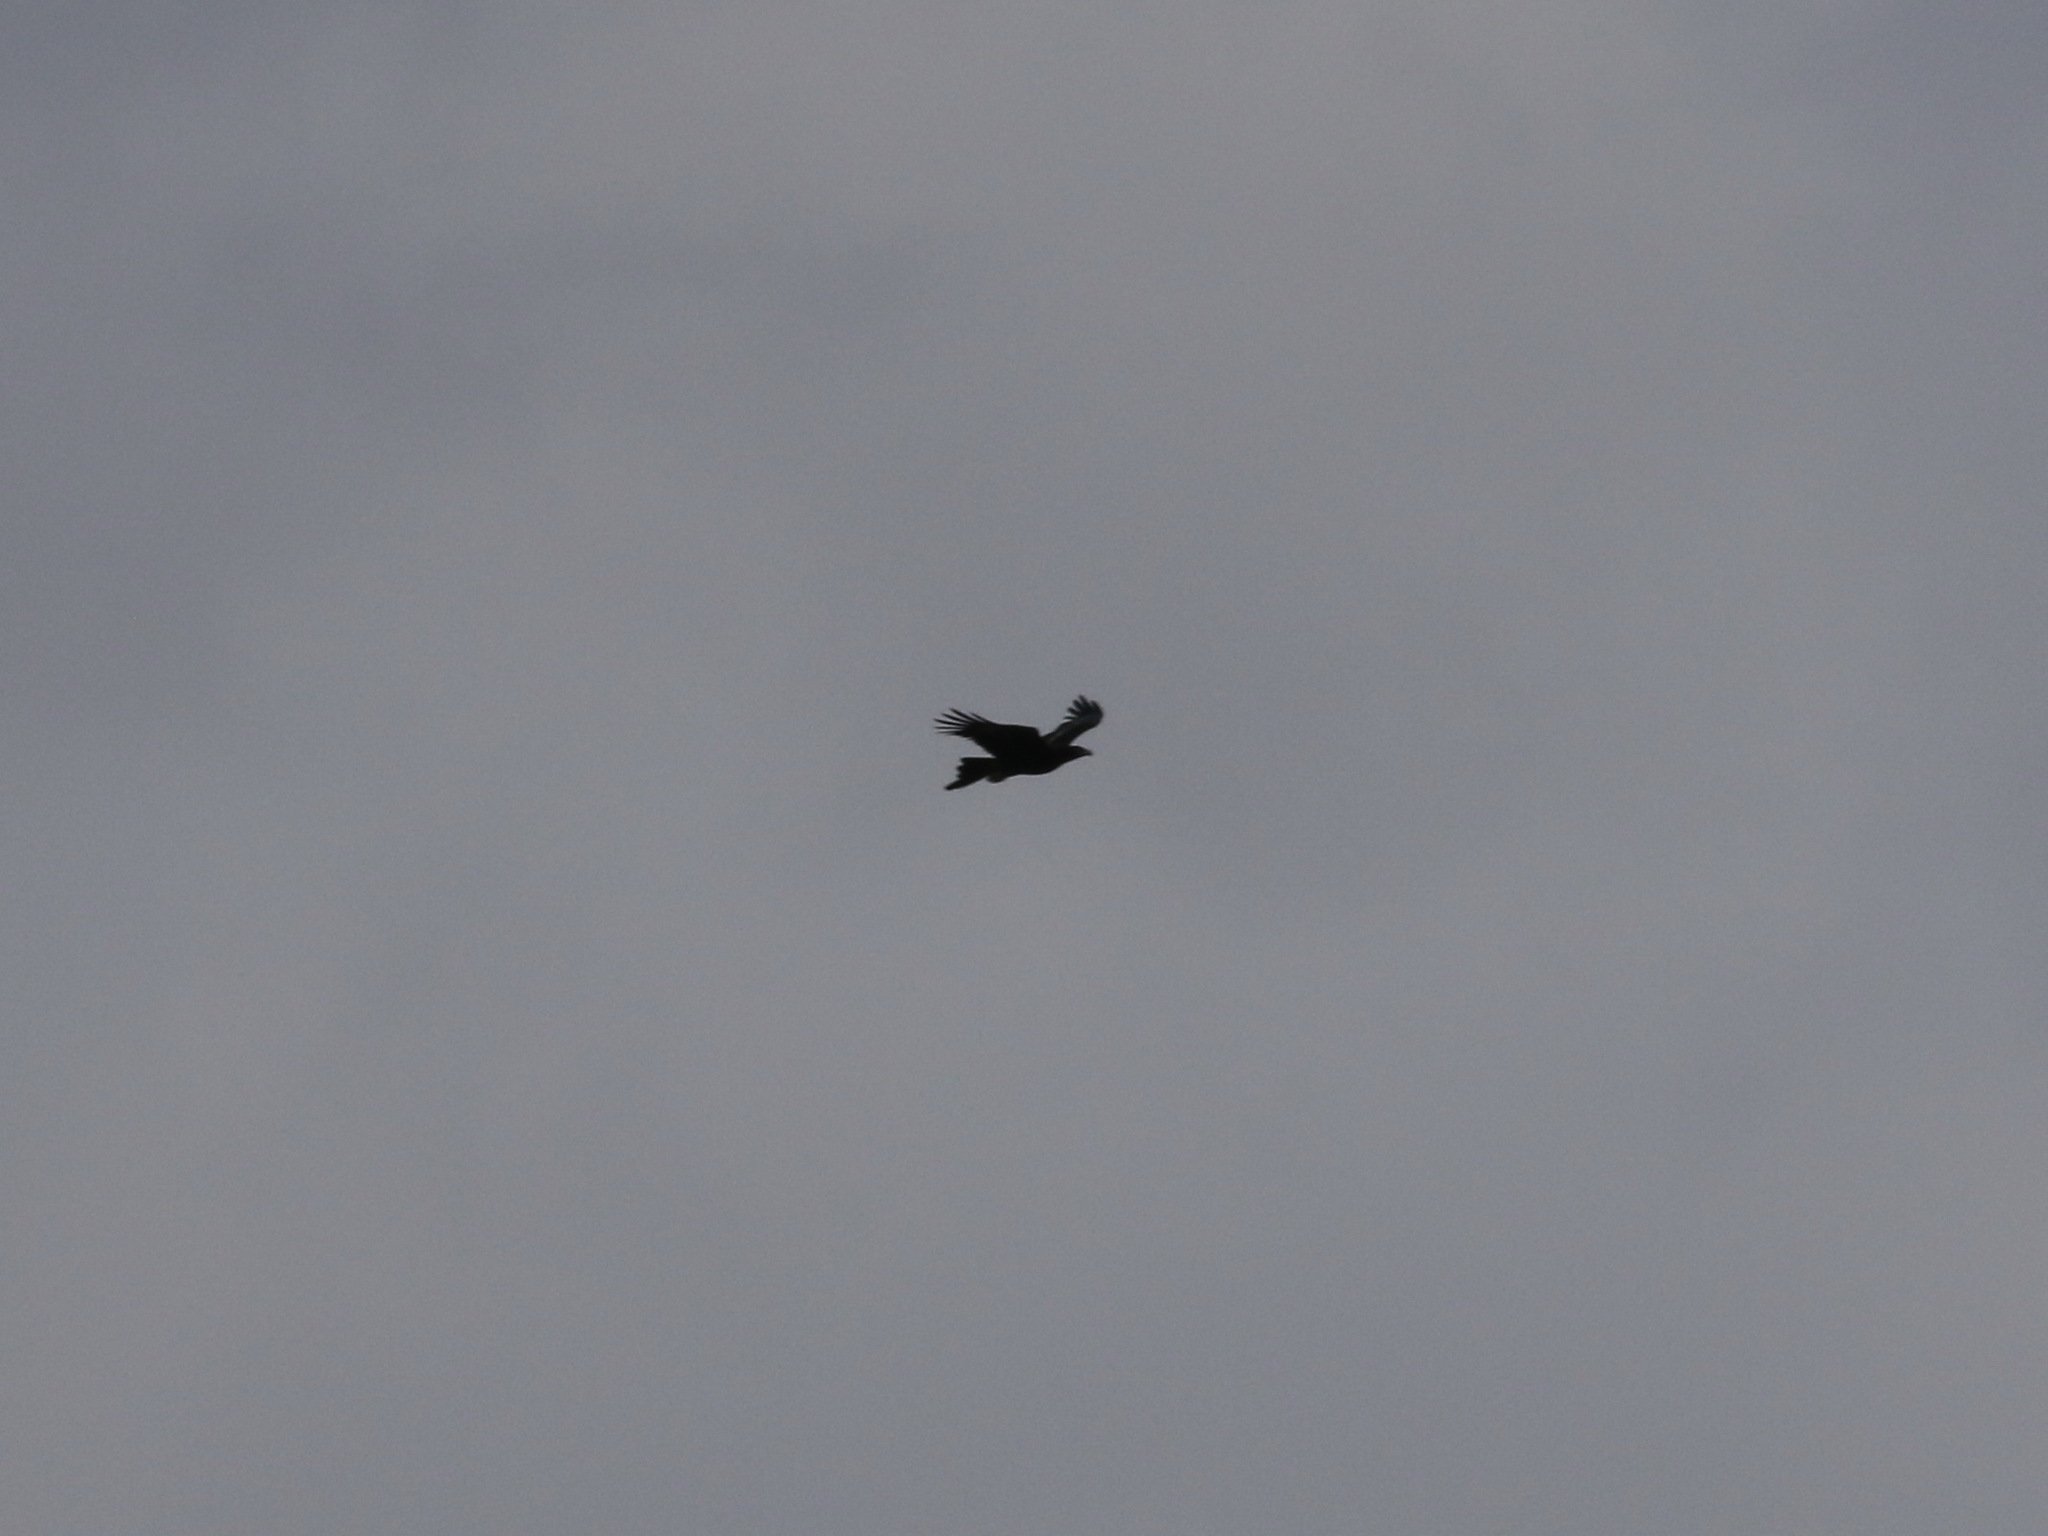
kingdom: Animalia
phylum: Chordata
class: Aves
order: Accipitriformes
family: Accipitridae
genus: Aquila
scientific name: Aquila audax
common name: Wedge-tailed eagle
